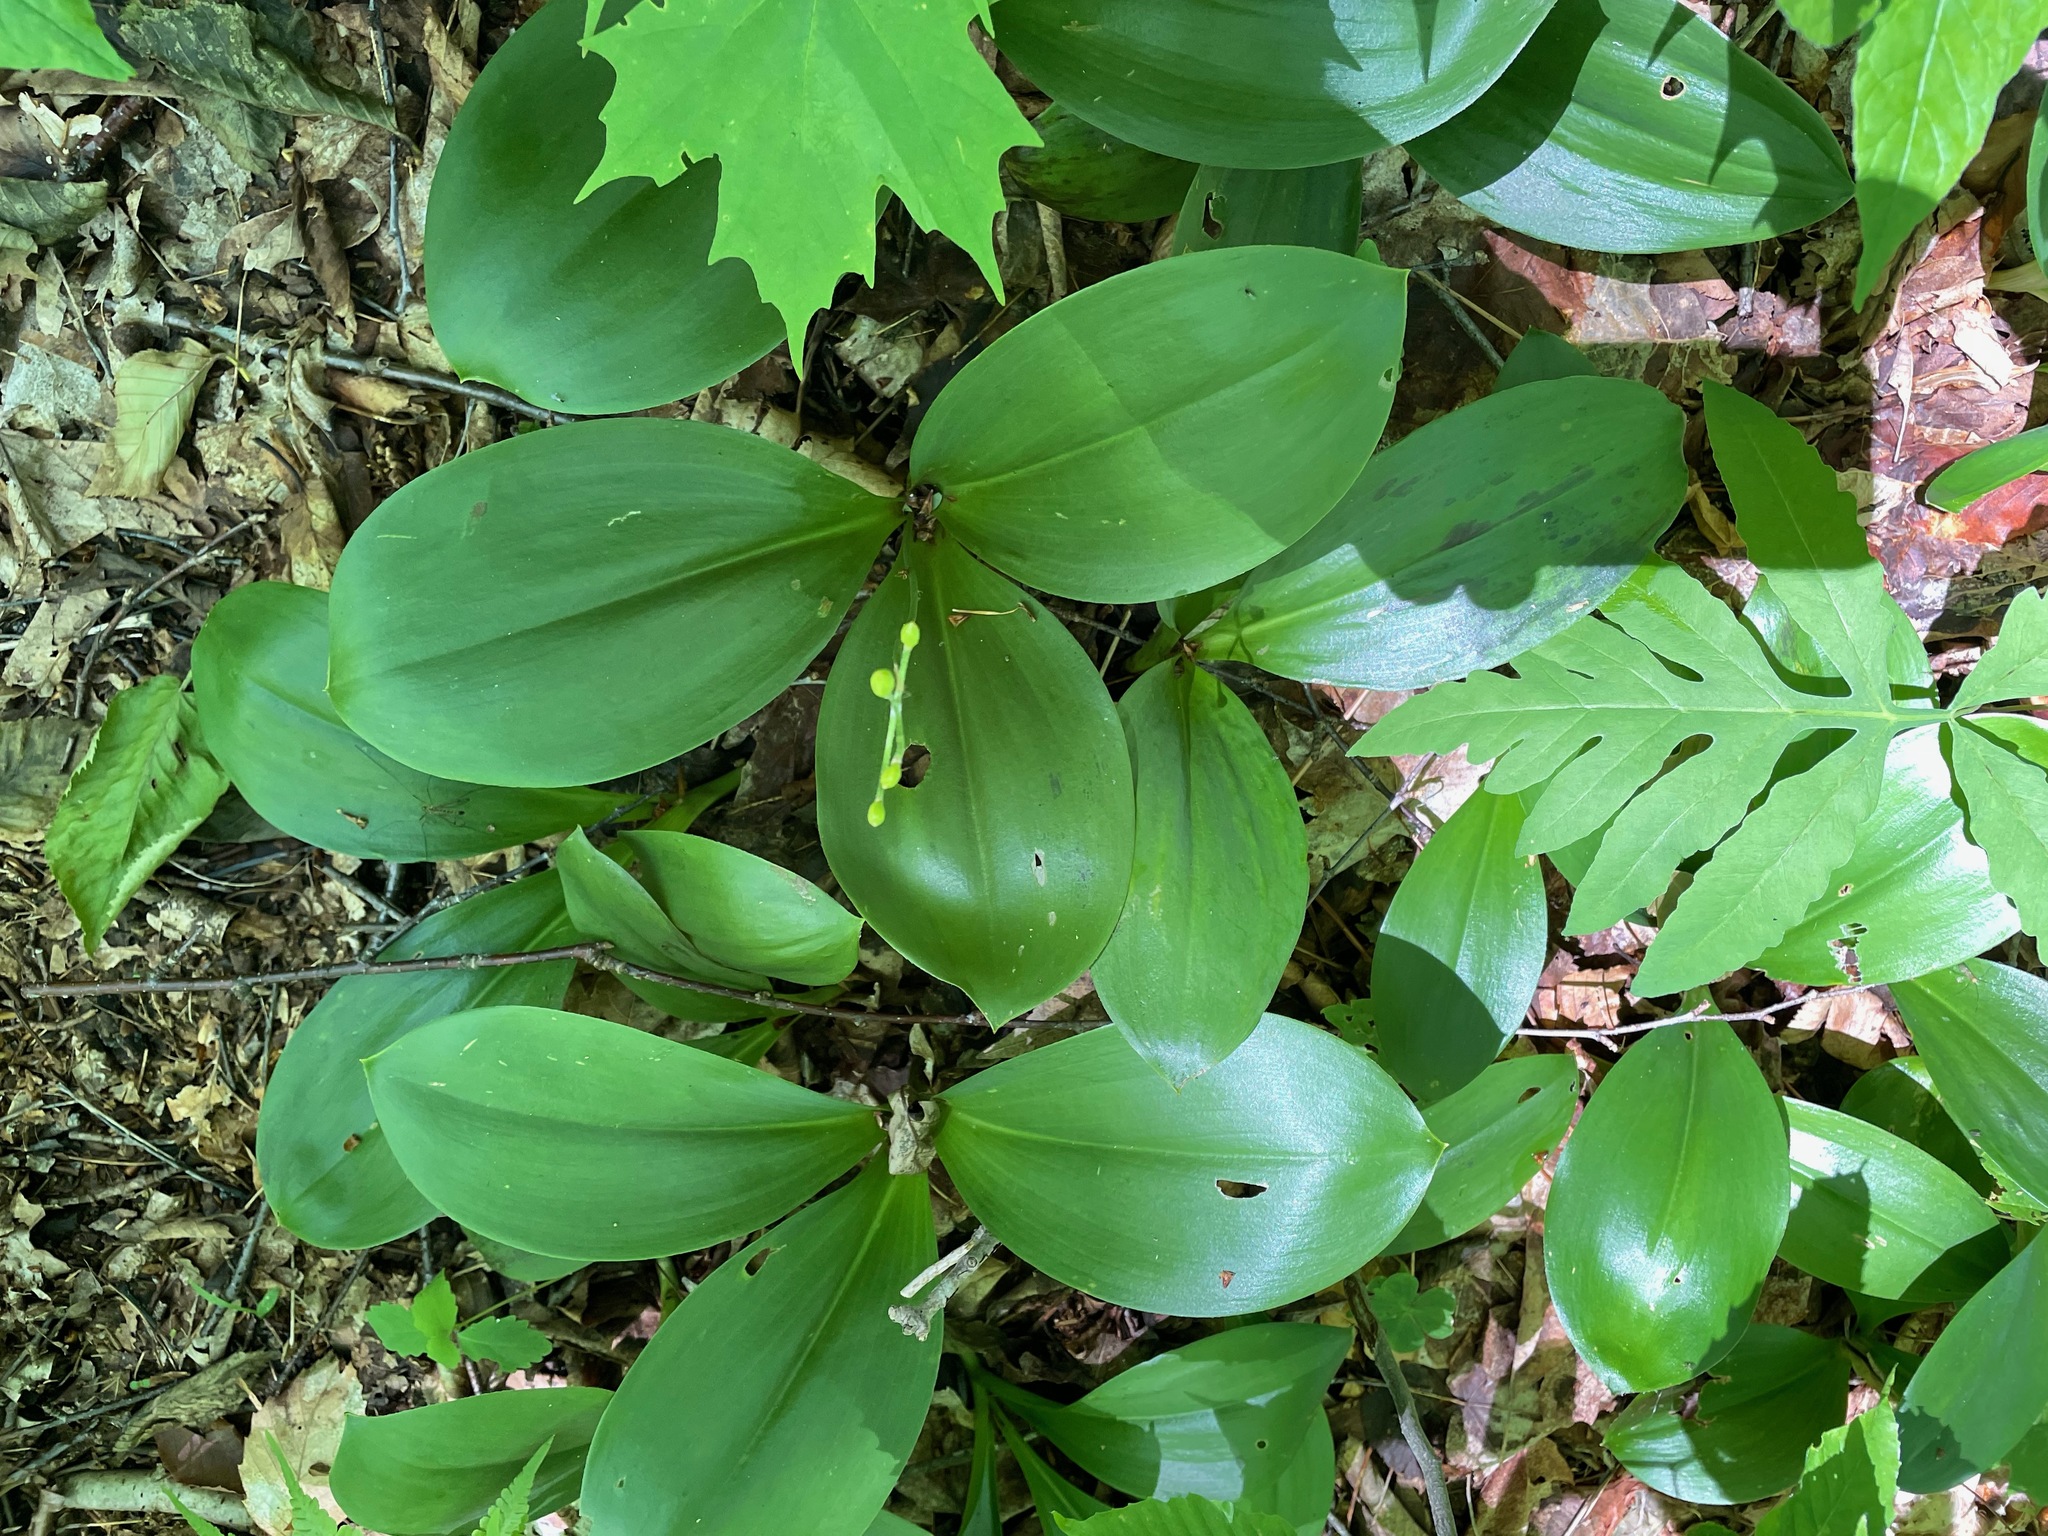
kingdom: Plantae
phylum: Tracheophyta
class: Liliopsida
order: Liliales
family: Liliaceae
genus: Clintonia
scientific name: Clintonia borealis
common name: Yellow clintonia
